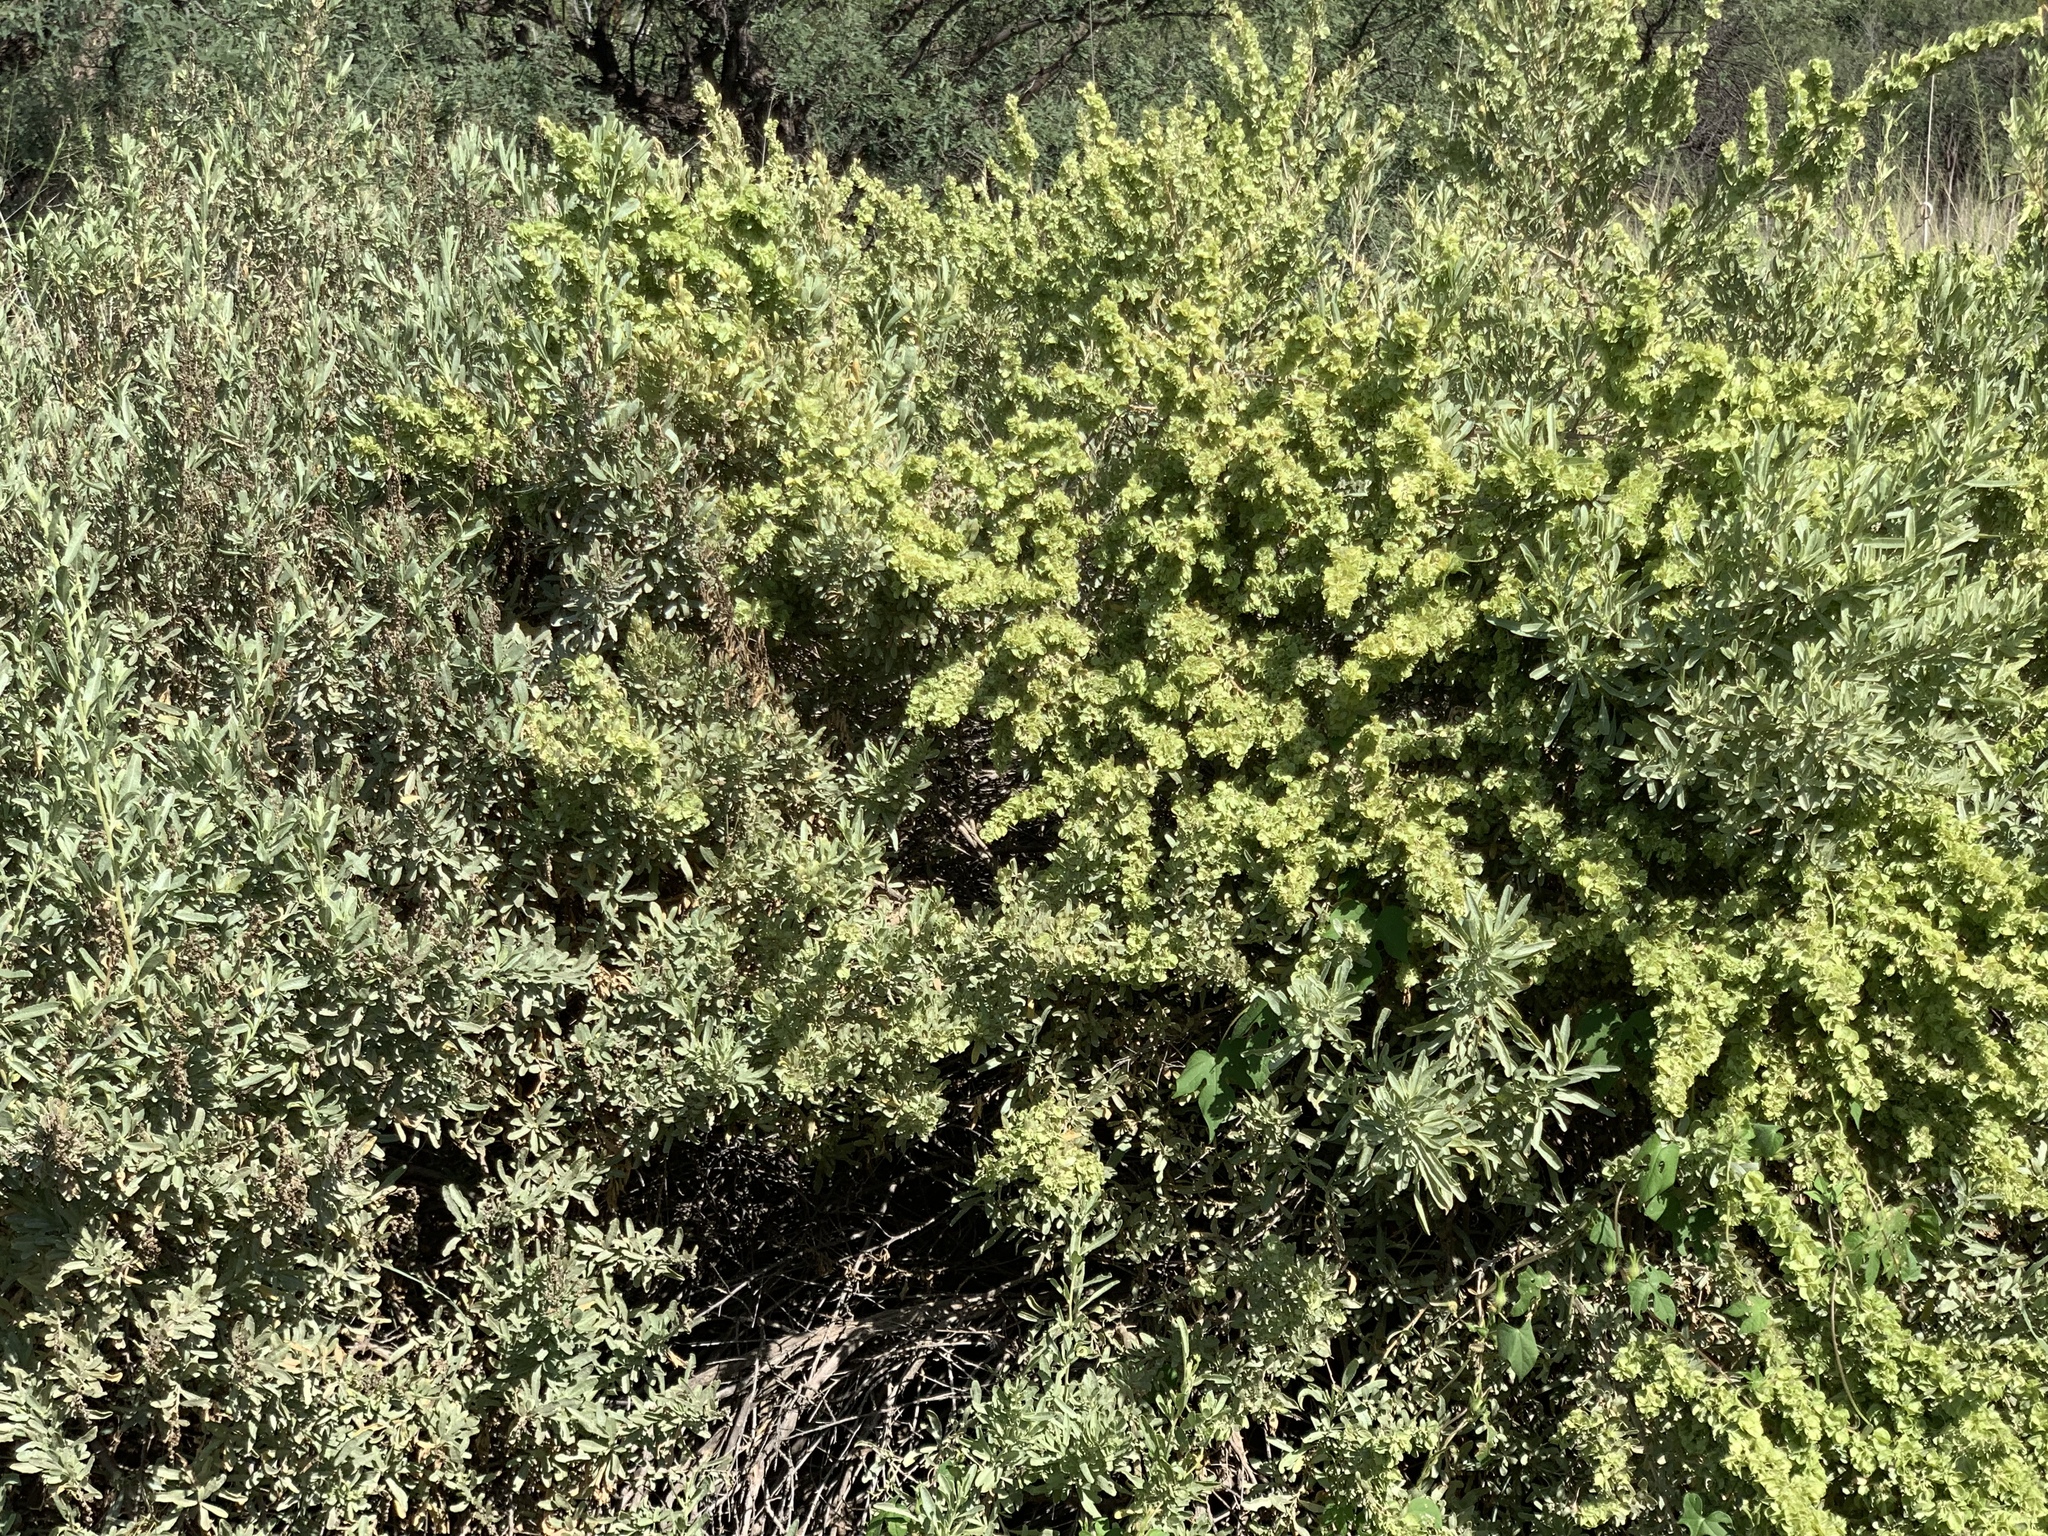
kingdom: Plantae
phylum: Tracheophyta
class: Magnoliopsida
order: Caryophyllales
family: Amaranthaceae
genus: Atriplex
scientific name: Atriplex canescens
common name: Four-wing saltbush
